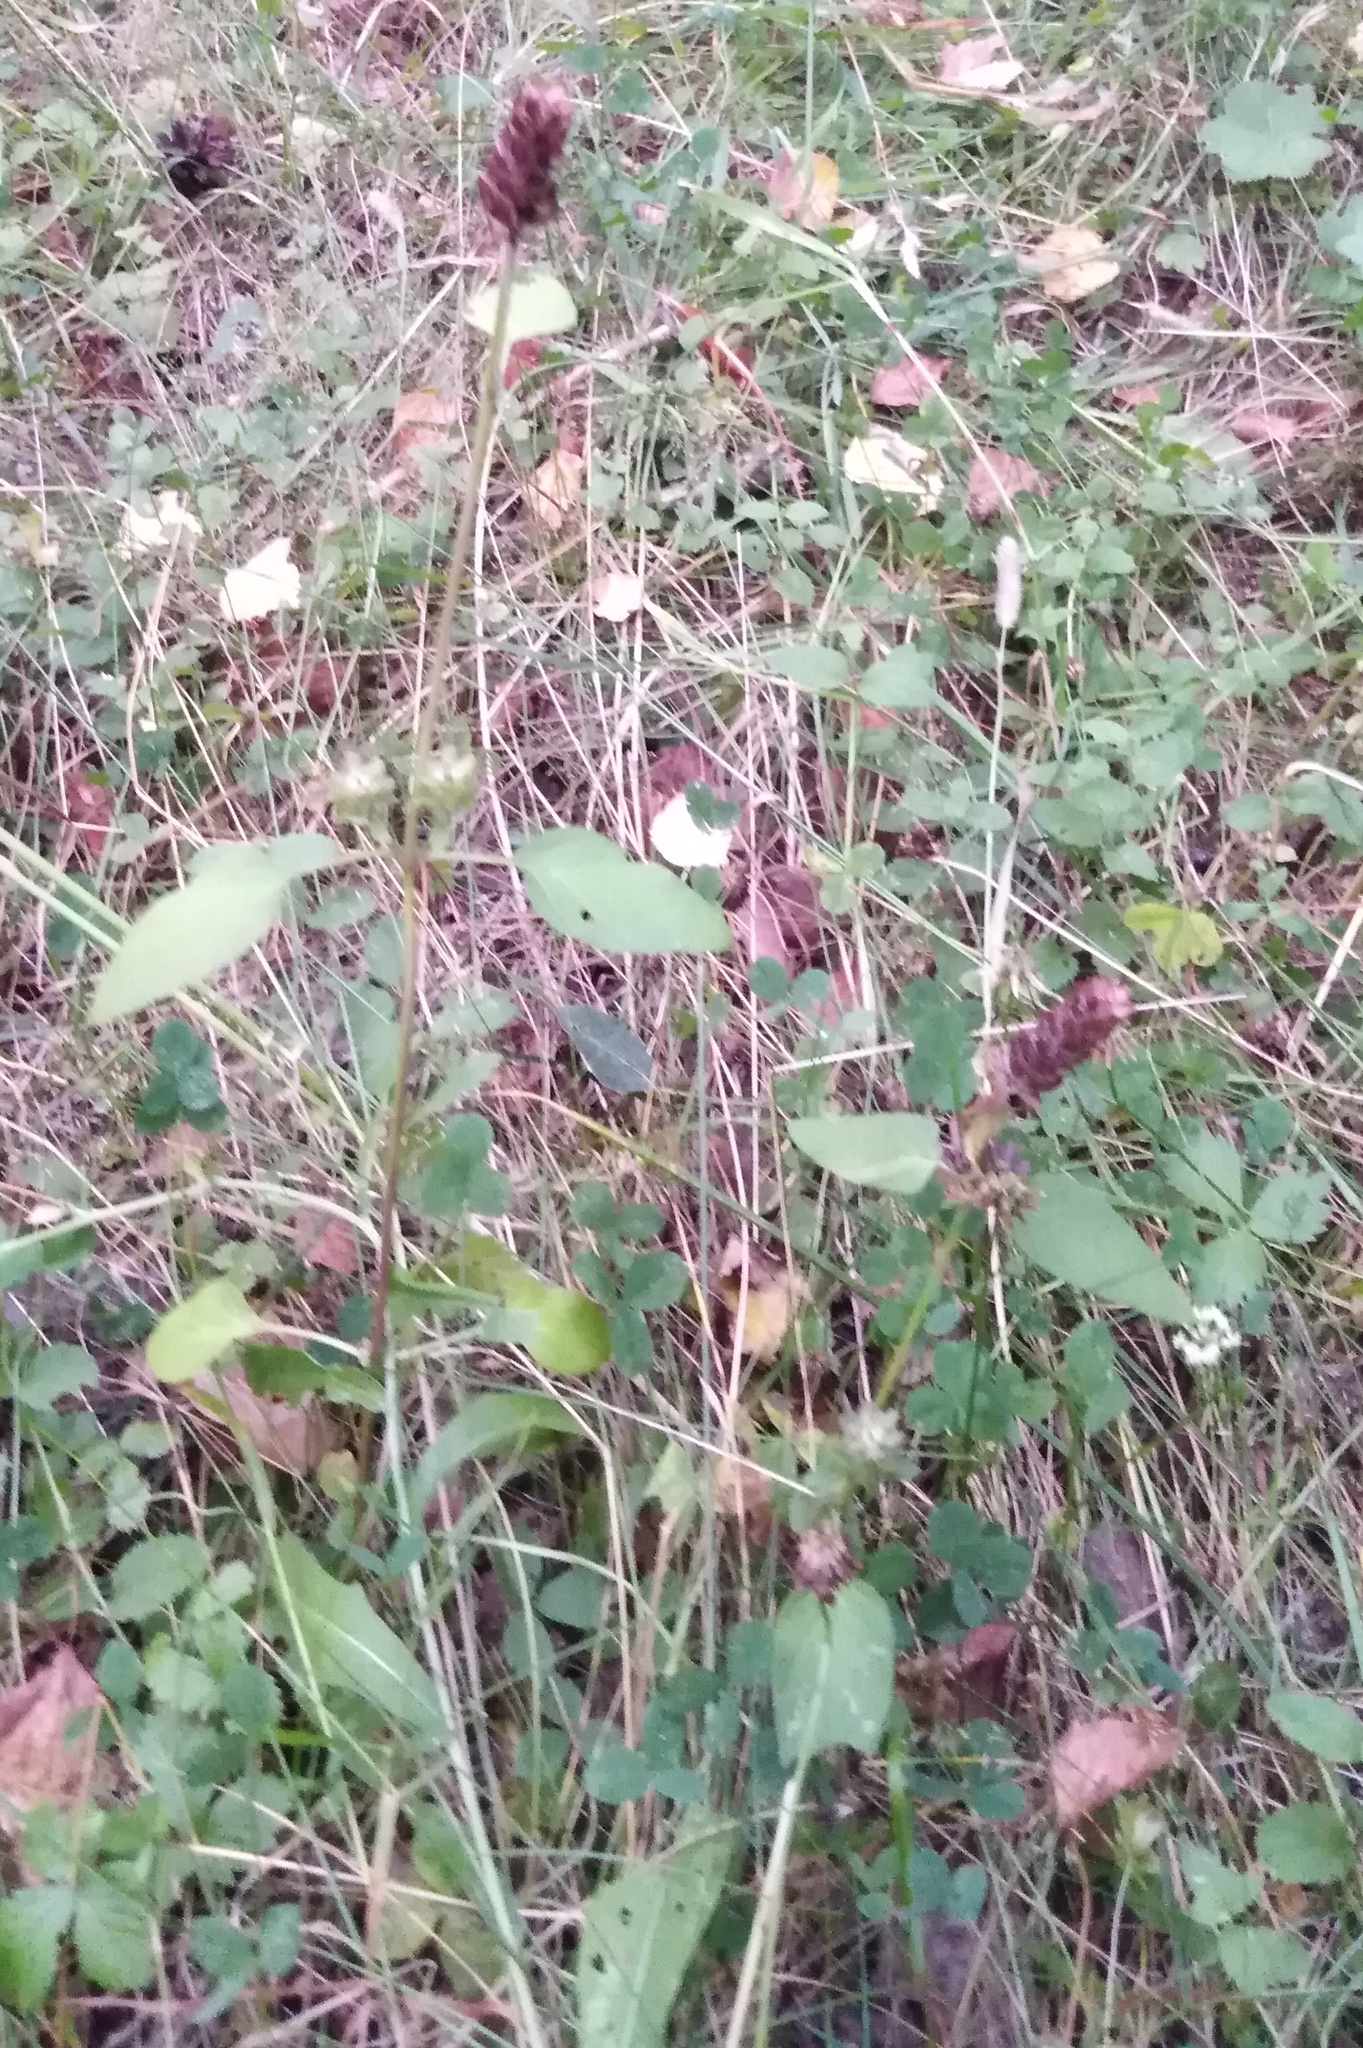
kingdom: Plantae
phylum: Tracheophyta
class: Magnoliopsida
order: Lamiales
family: Lamiaceae
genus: Prunella
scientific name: Prunella vulgaris
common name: Heal-all
